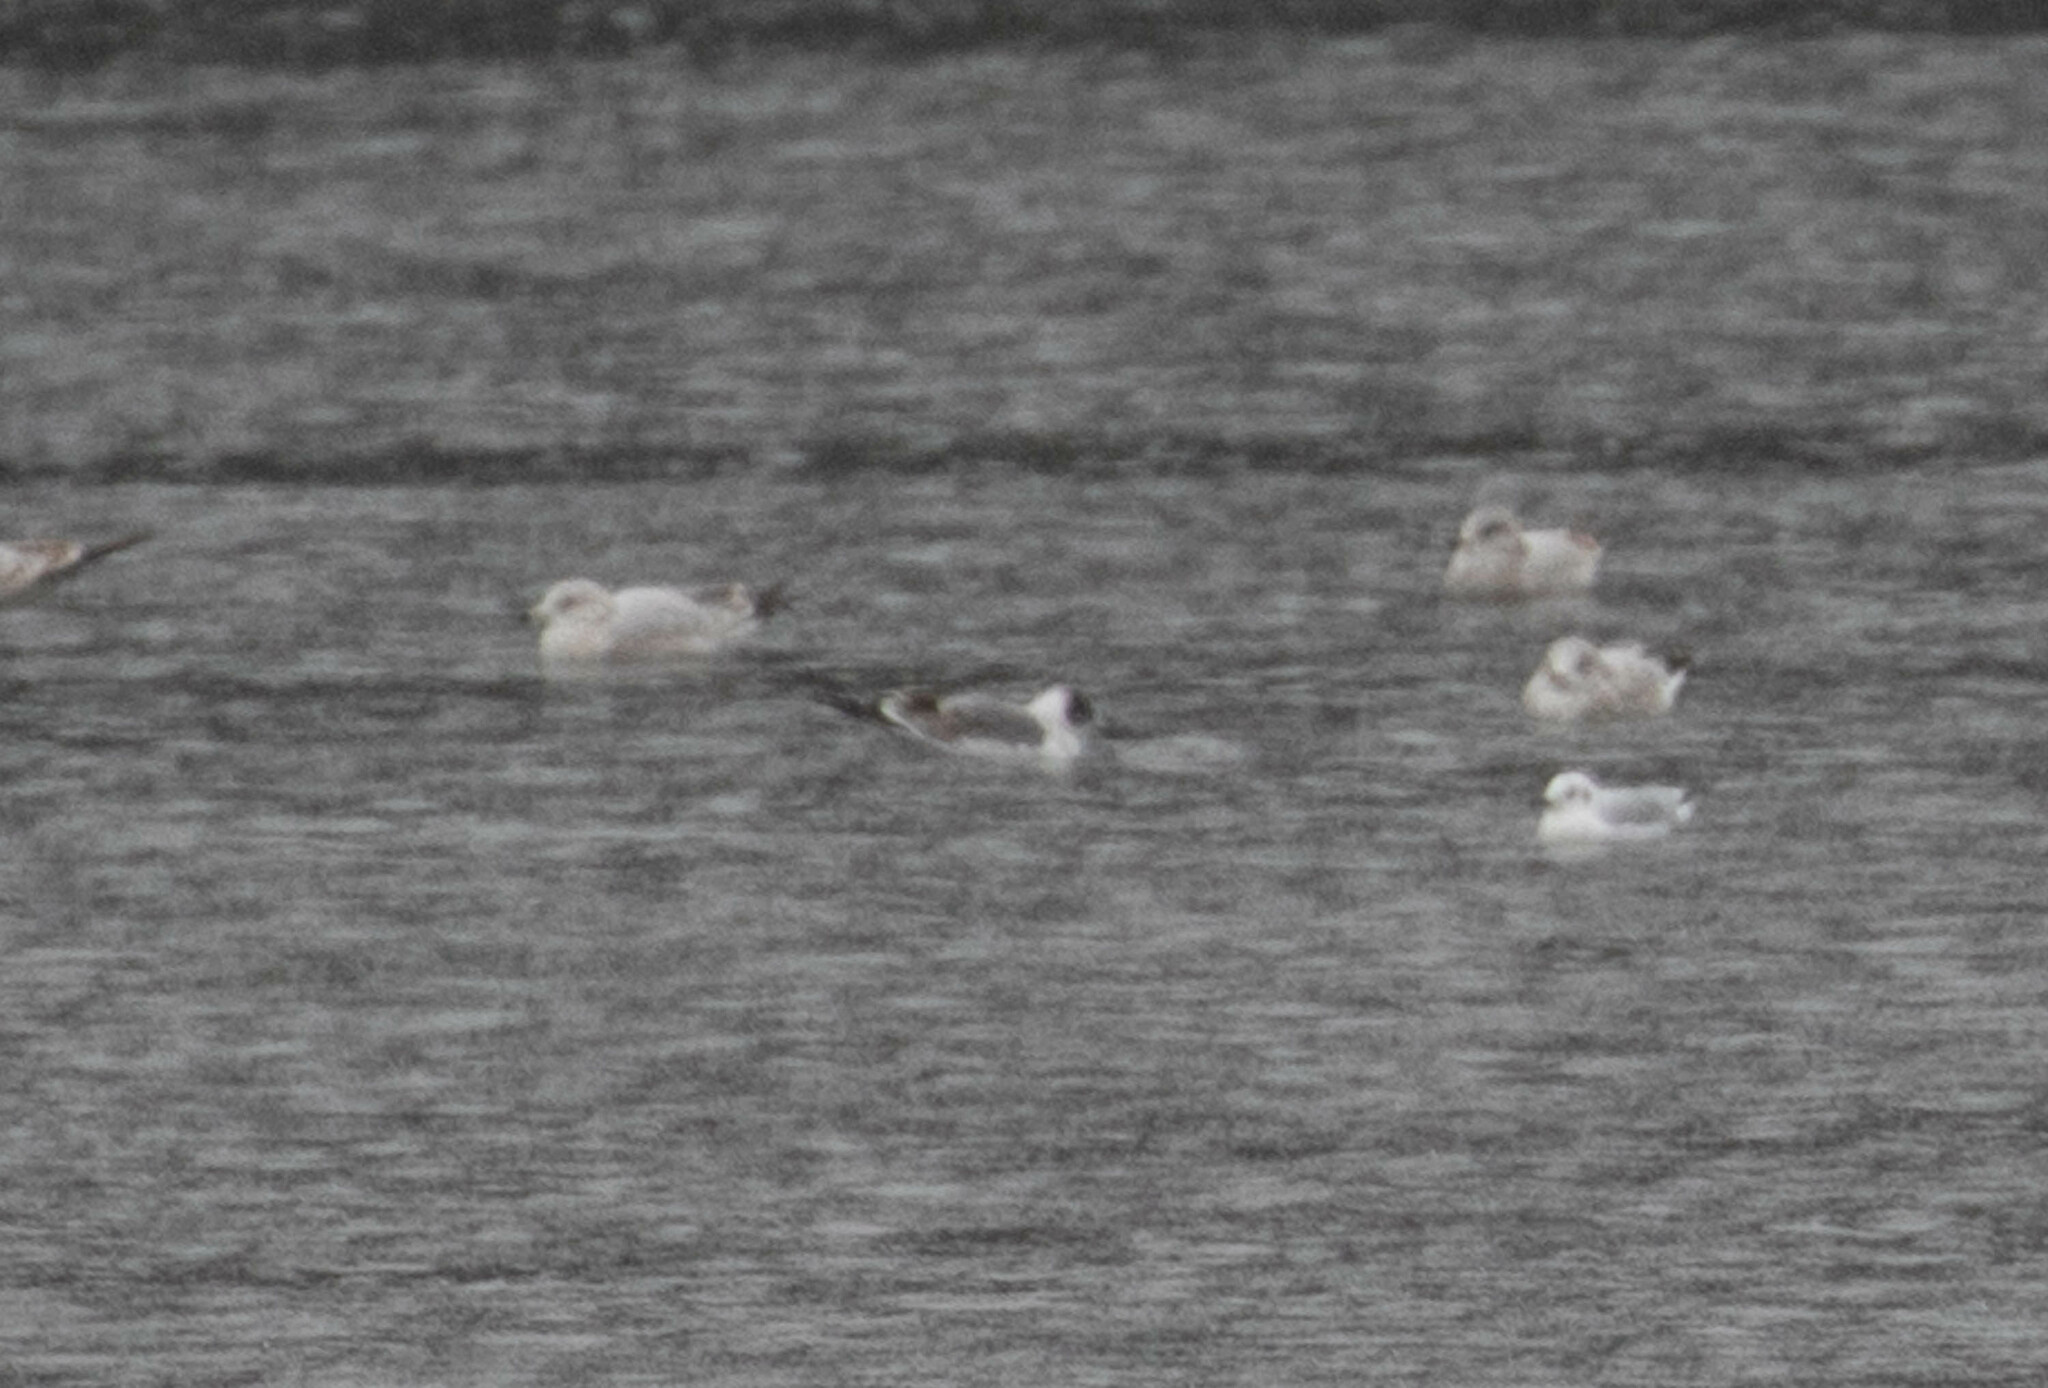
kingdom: Animalia
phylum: Chordata
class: Aves
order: Charadriiformes
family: Laridae
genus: Chroicocephalus
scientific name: Chroicocephalus philadelphia
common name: Bonaparte's gull
